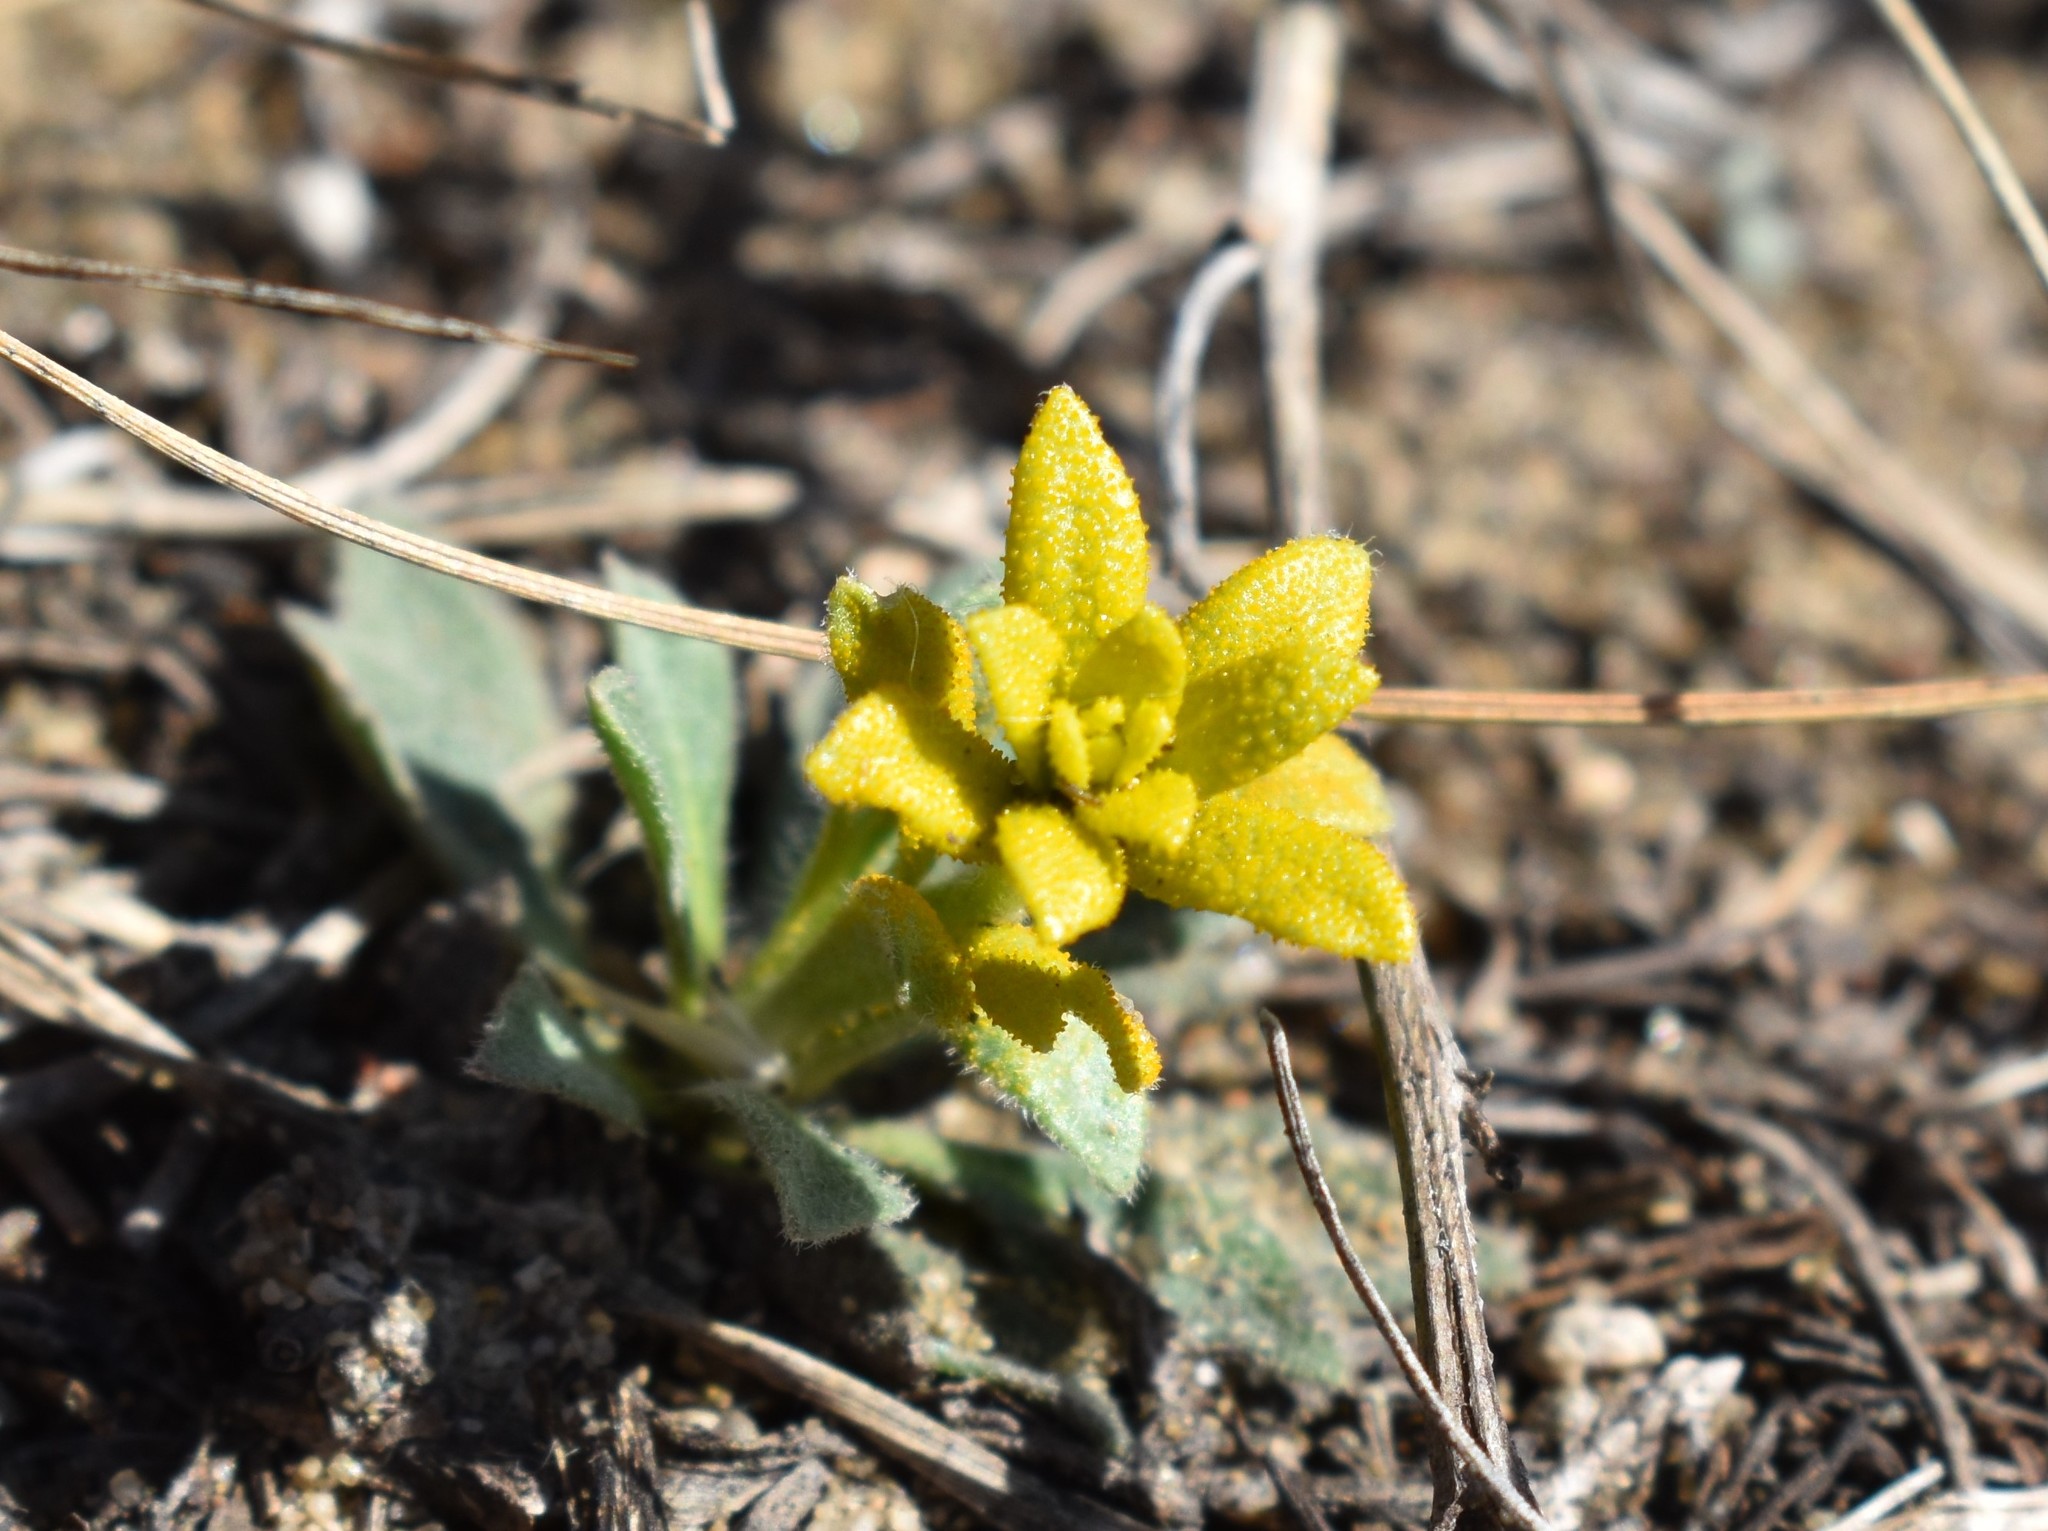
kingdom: Fungi
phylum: Basidiomycota
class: Pucciniomycetes
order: Pucciniales
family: Pucciniaceae
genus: Puccinia
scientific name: Puccinia monoica
